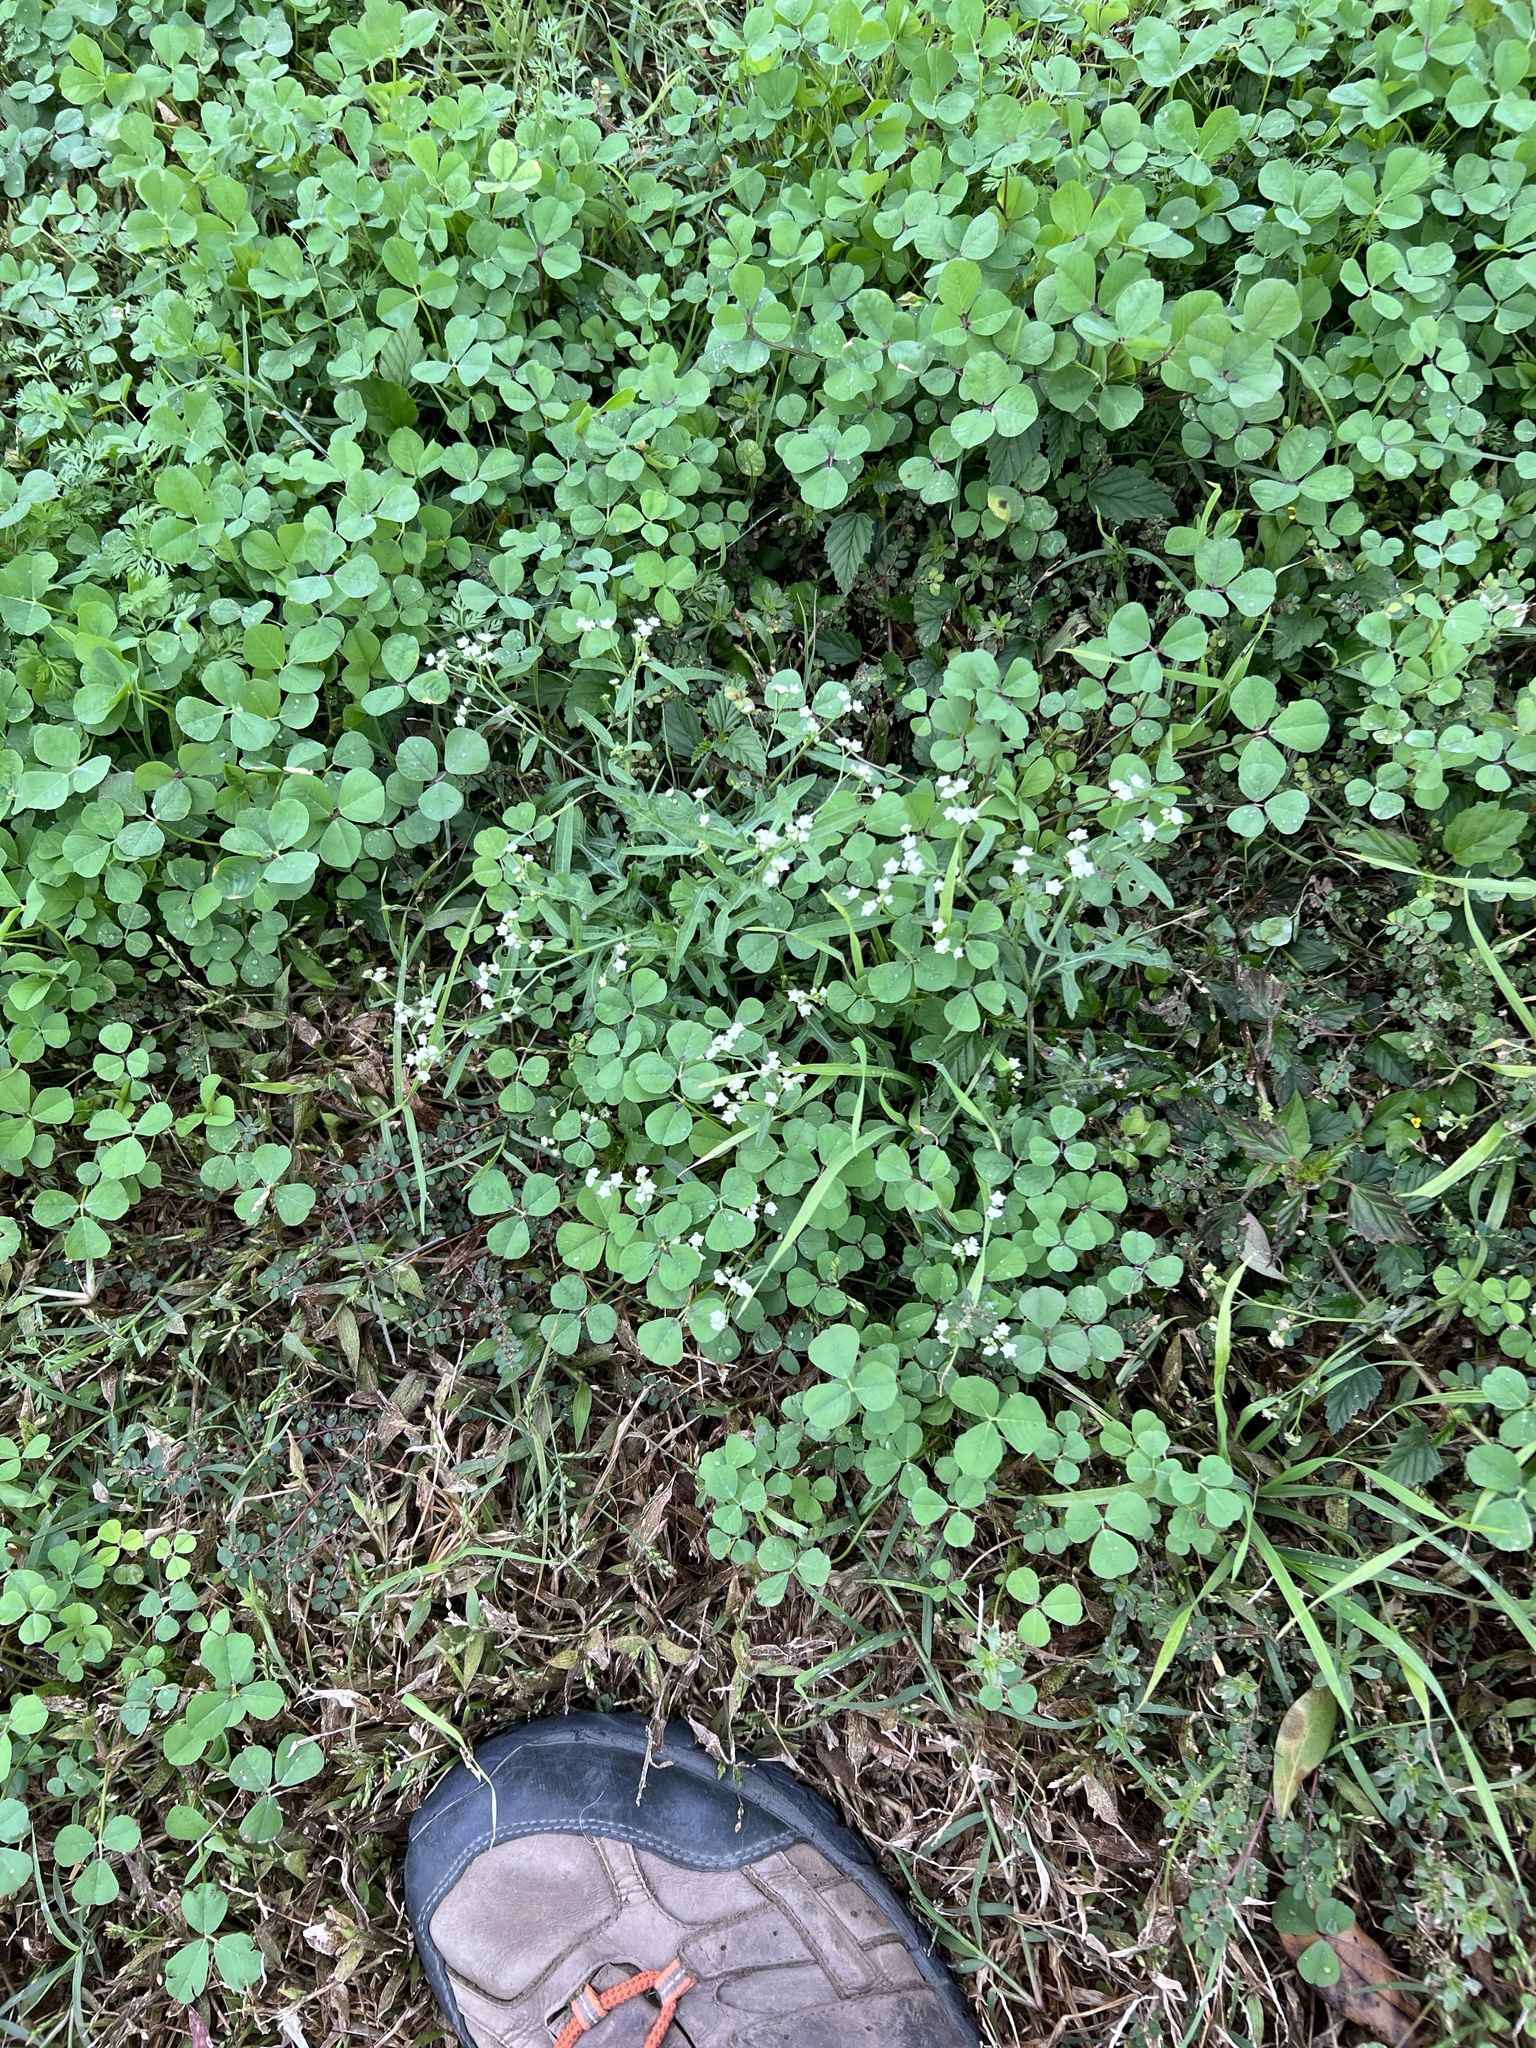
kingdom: Plantae
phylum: Tracheophyta
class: Magnoliopsida
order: Asterales
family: Asteraceae
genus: Parthenium
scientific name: Parthenium hysterophorus
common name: Santa maria feverfew
